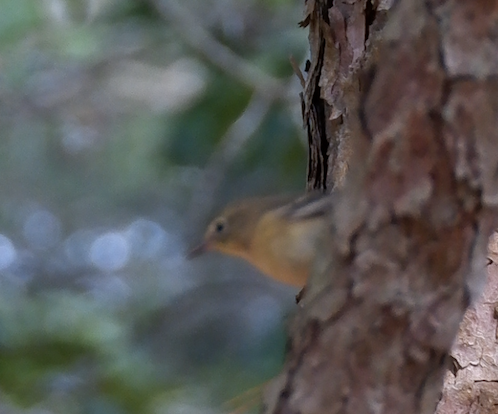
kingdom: Animalia
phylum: Chordata
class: Aves
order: Passeriformes
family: Parulidae
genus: Setophaga
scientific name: Setophaga pinus
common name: Pine warbler
